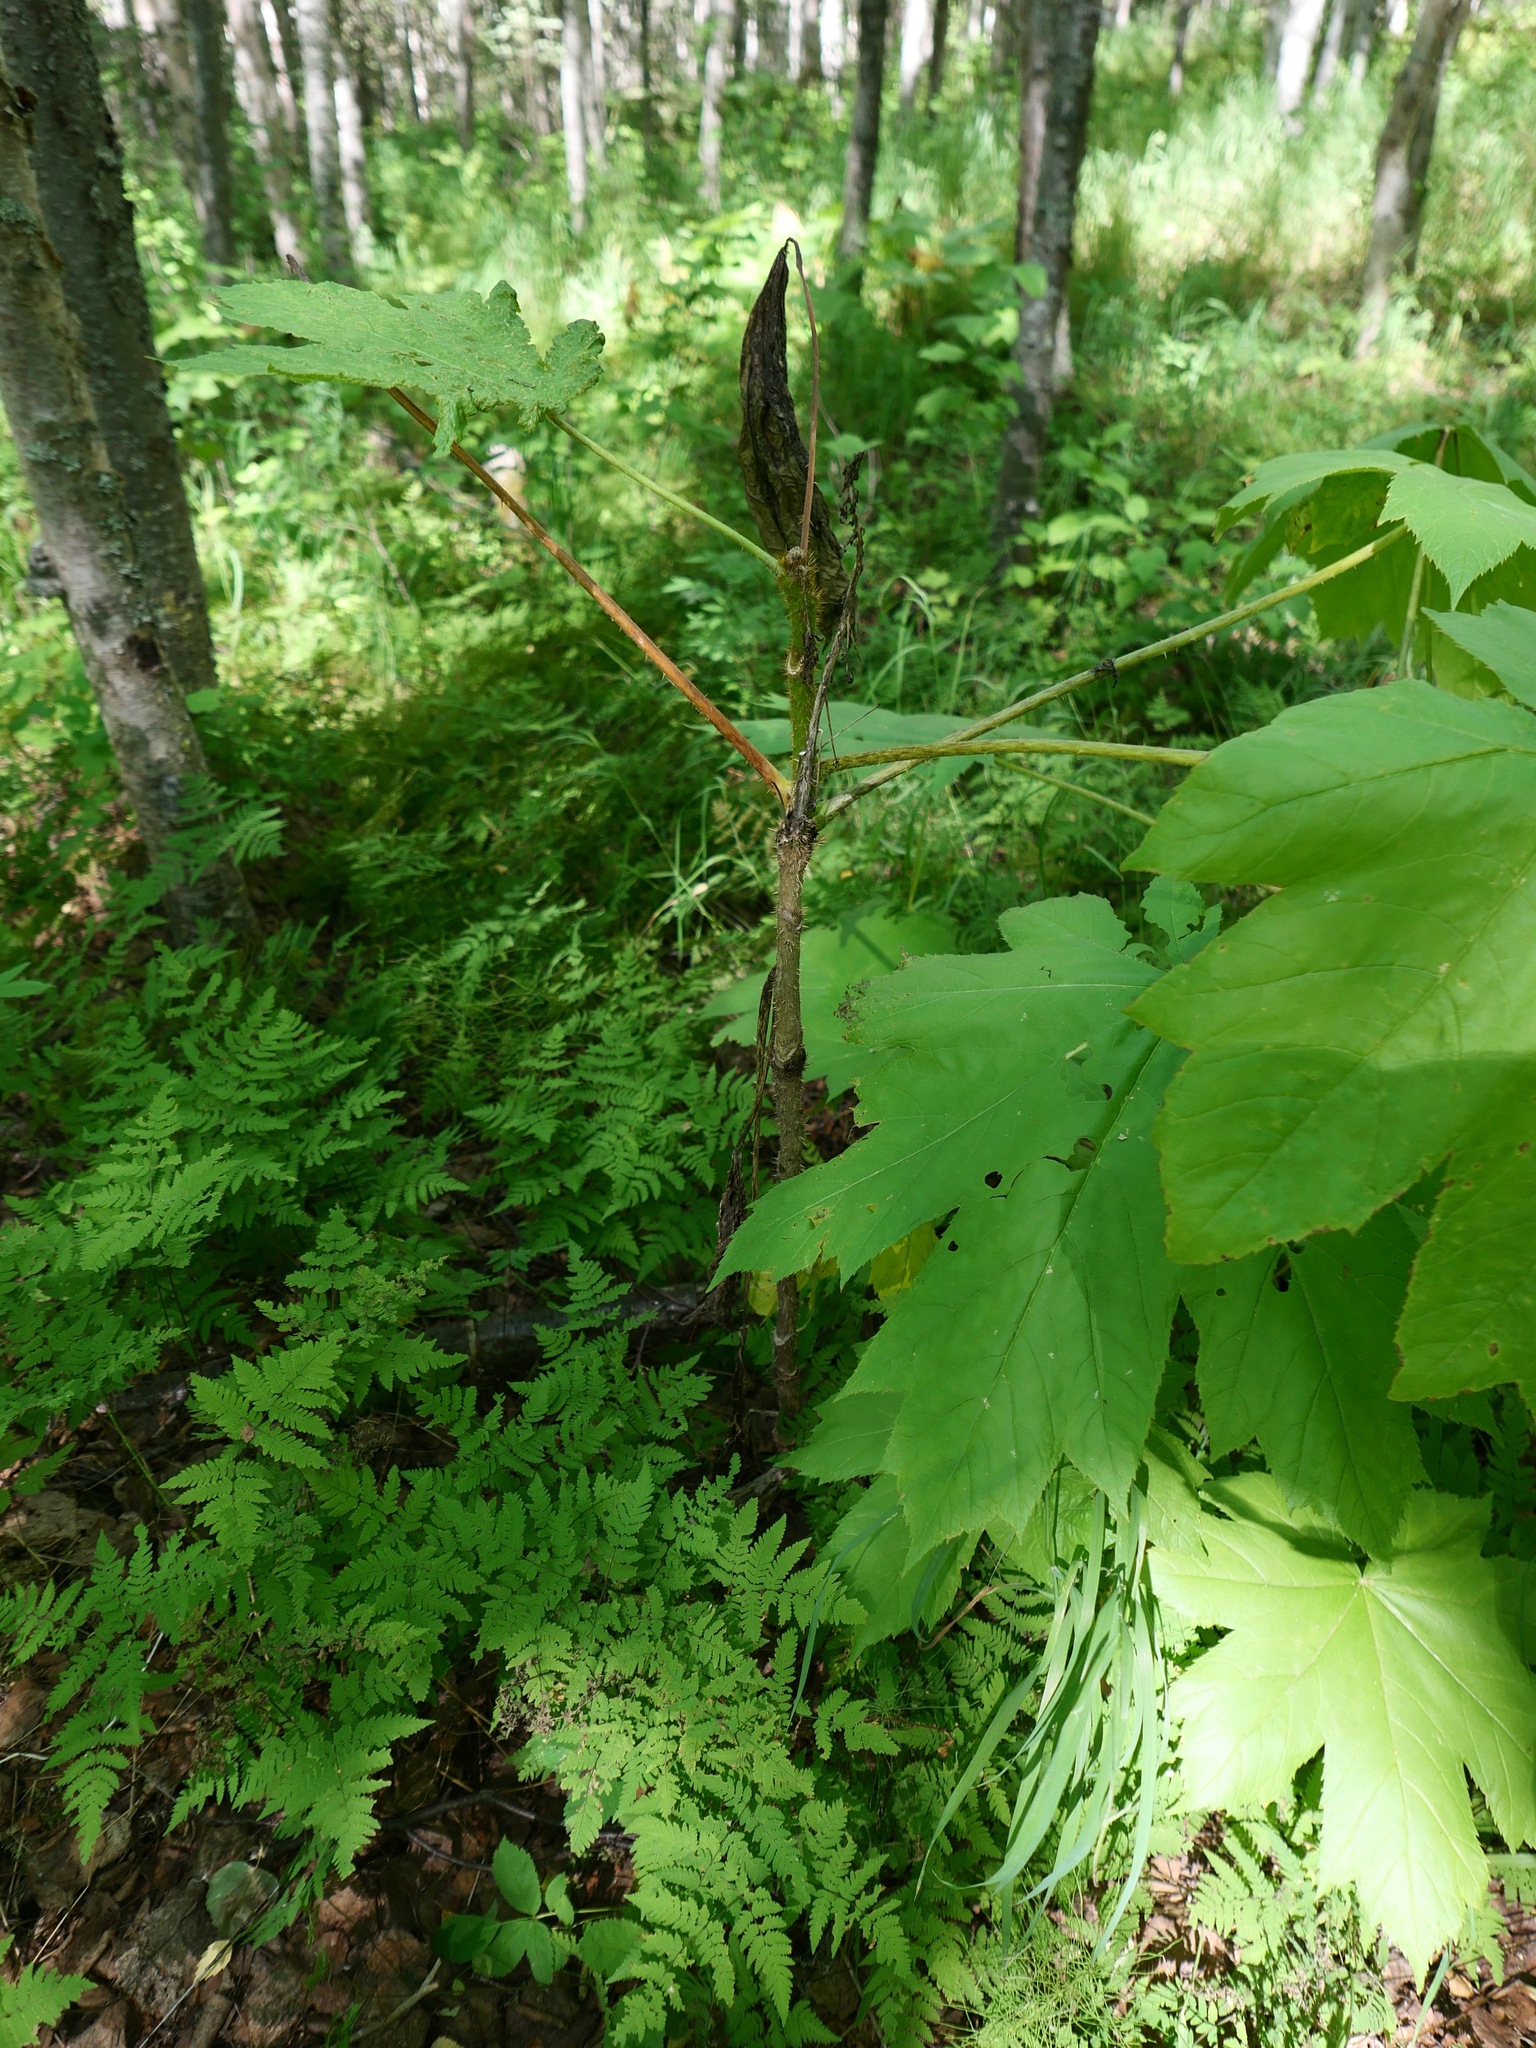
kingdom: Plantae
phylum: Tracheophyta
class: Magnoliopsida
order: Apiales
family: Araliaceae
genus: Oplopanax
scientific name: Oplopanax horridus
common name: Devil's walking-stick
